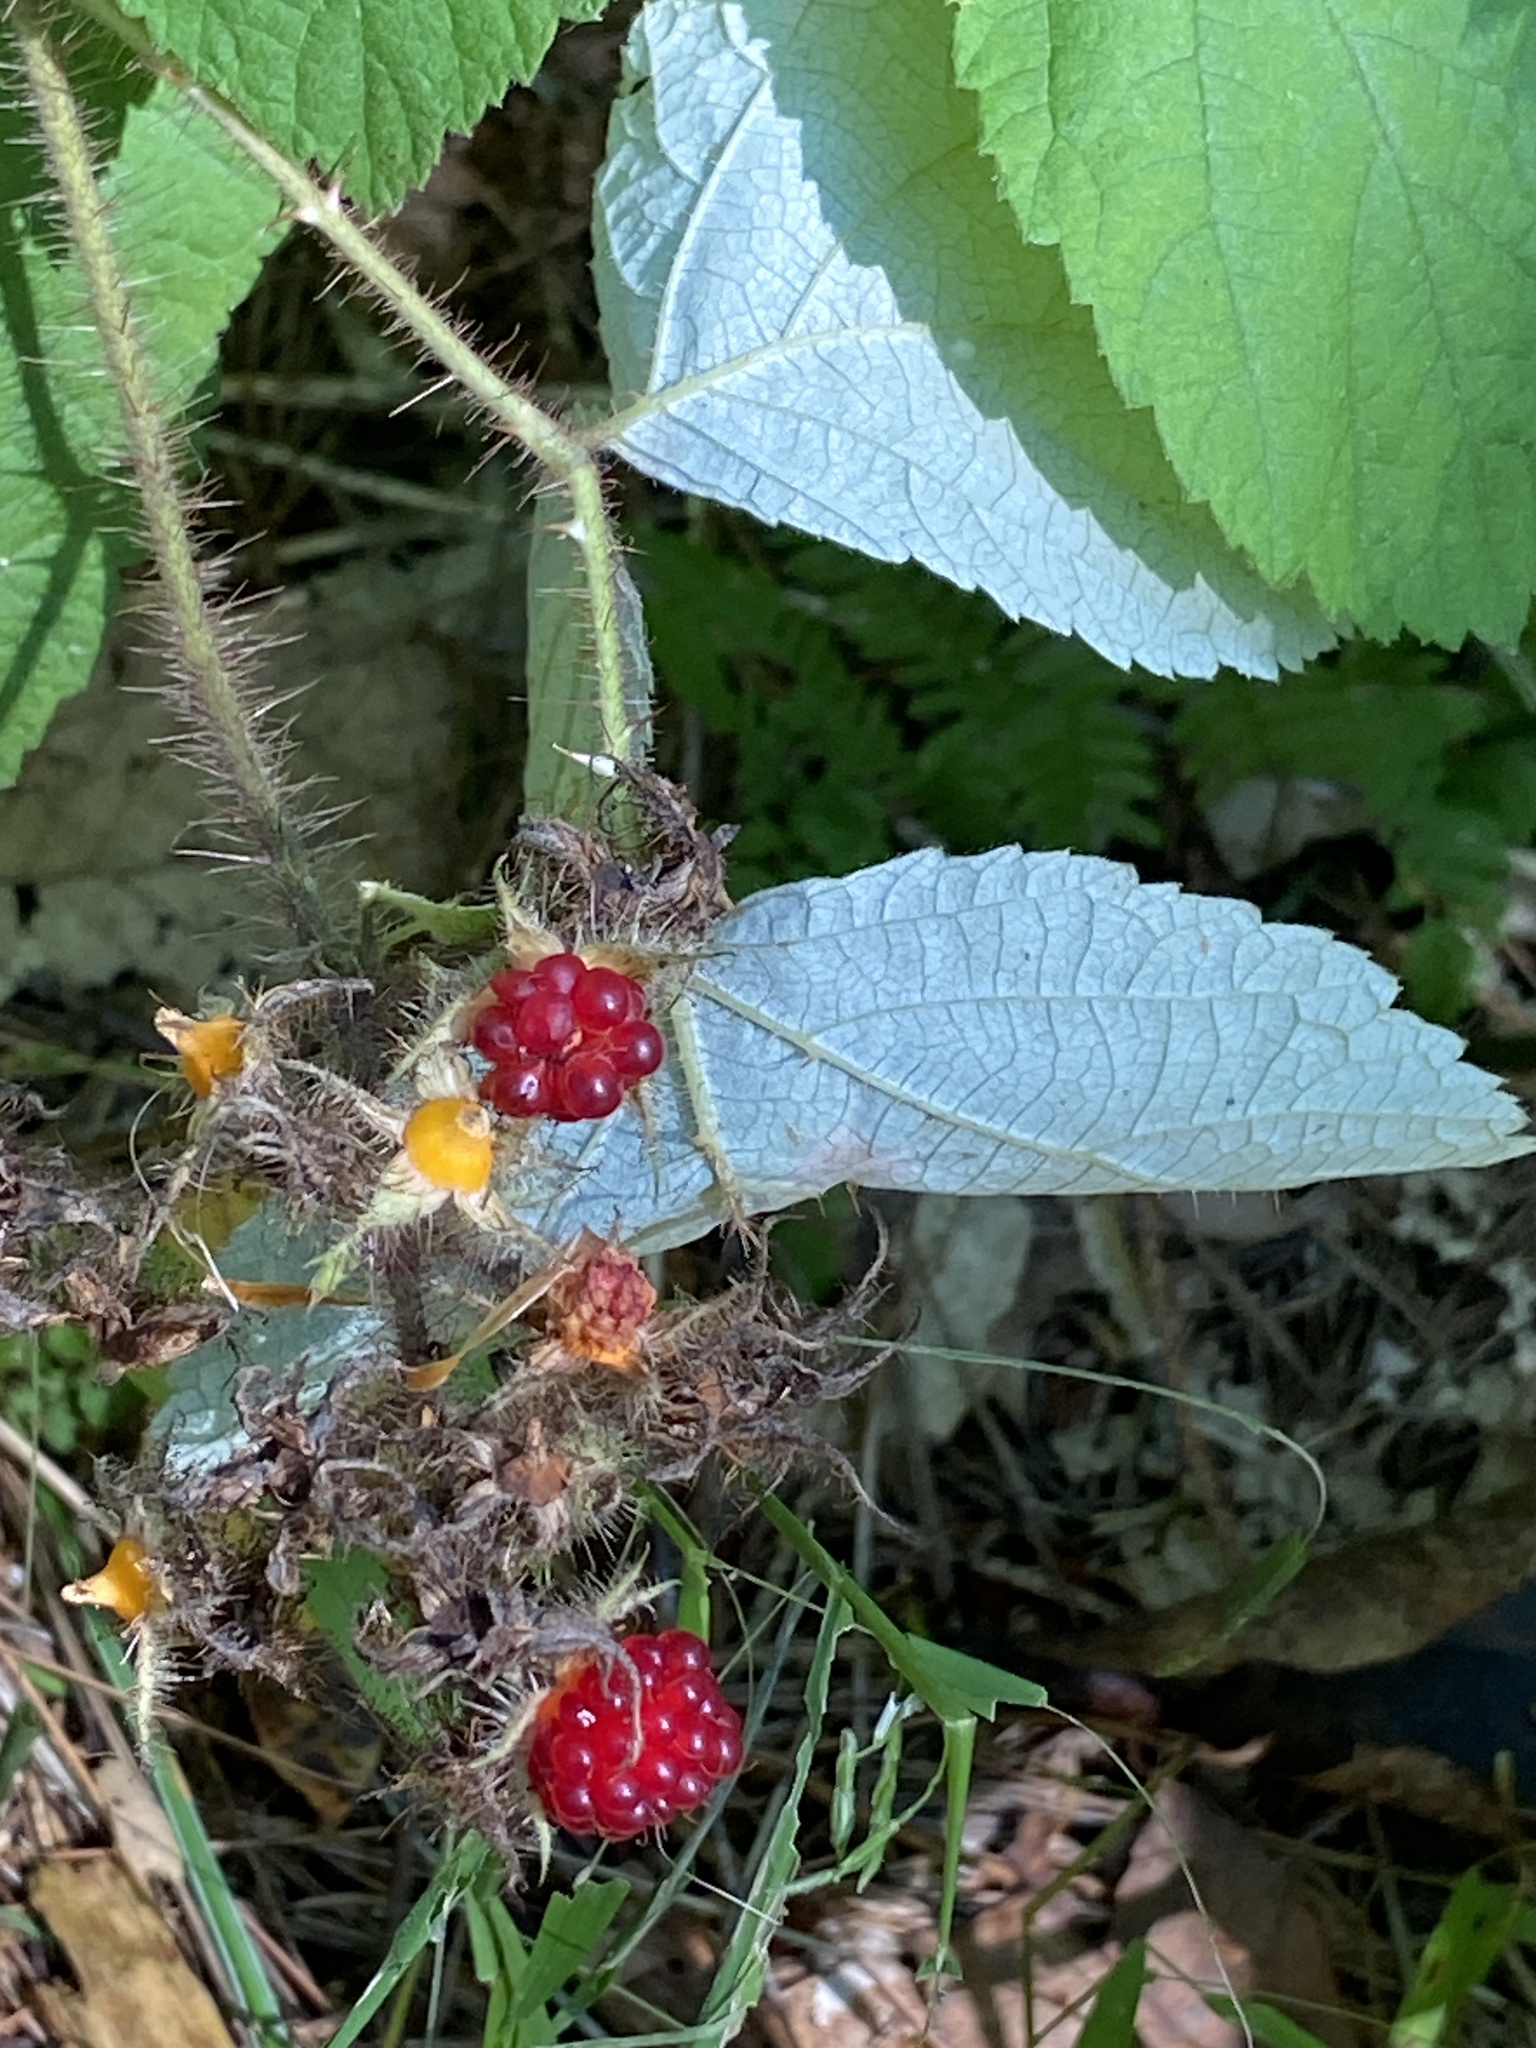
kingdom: Plantae
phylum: Tracheophyta
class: Magnoliopsida
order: Rosales
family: Rosaceae
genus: Rubus
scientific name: Rubus phoenicolasius
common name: Japanese wineberry
